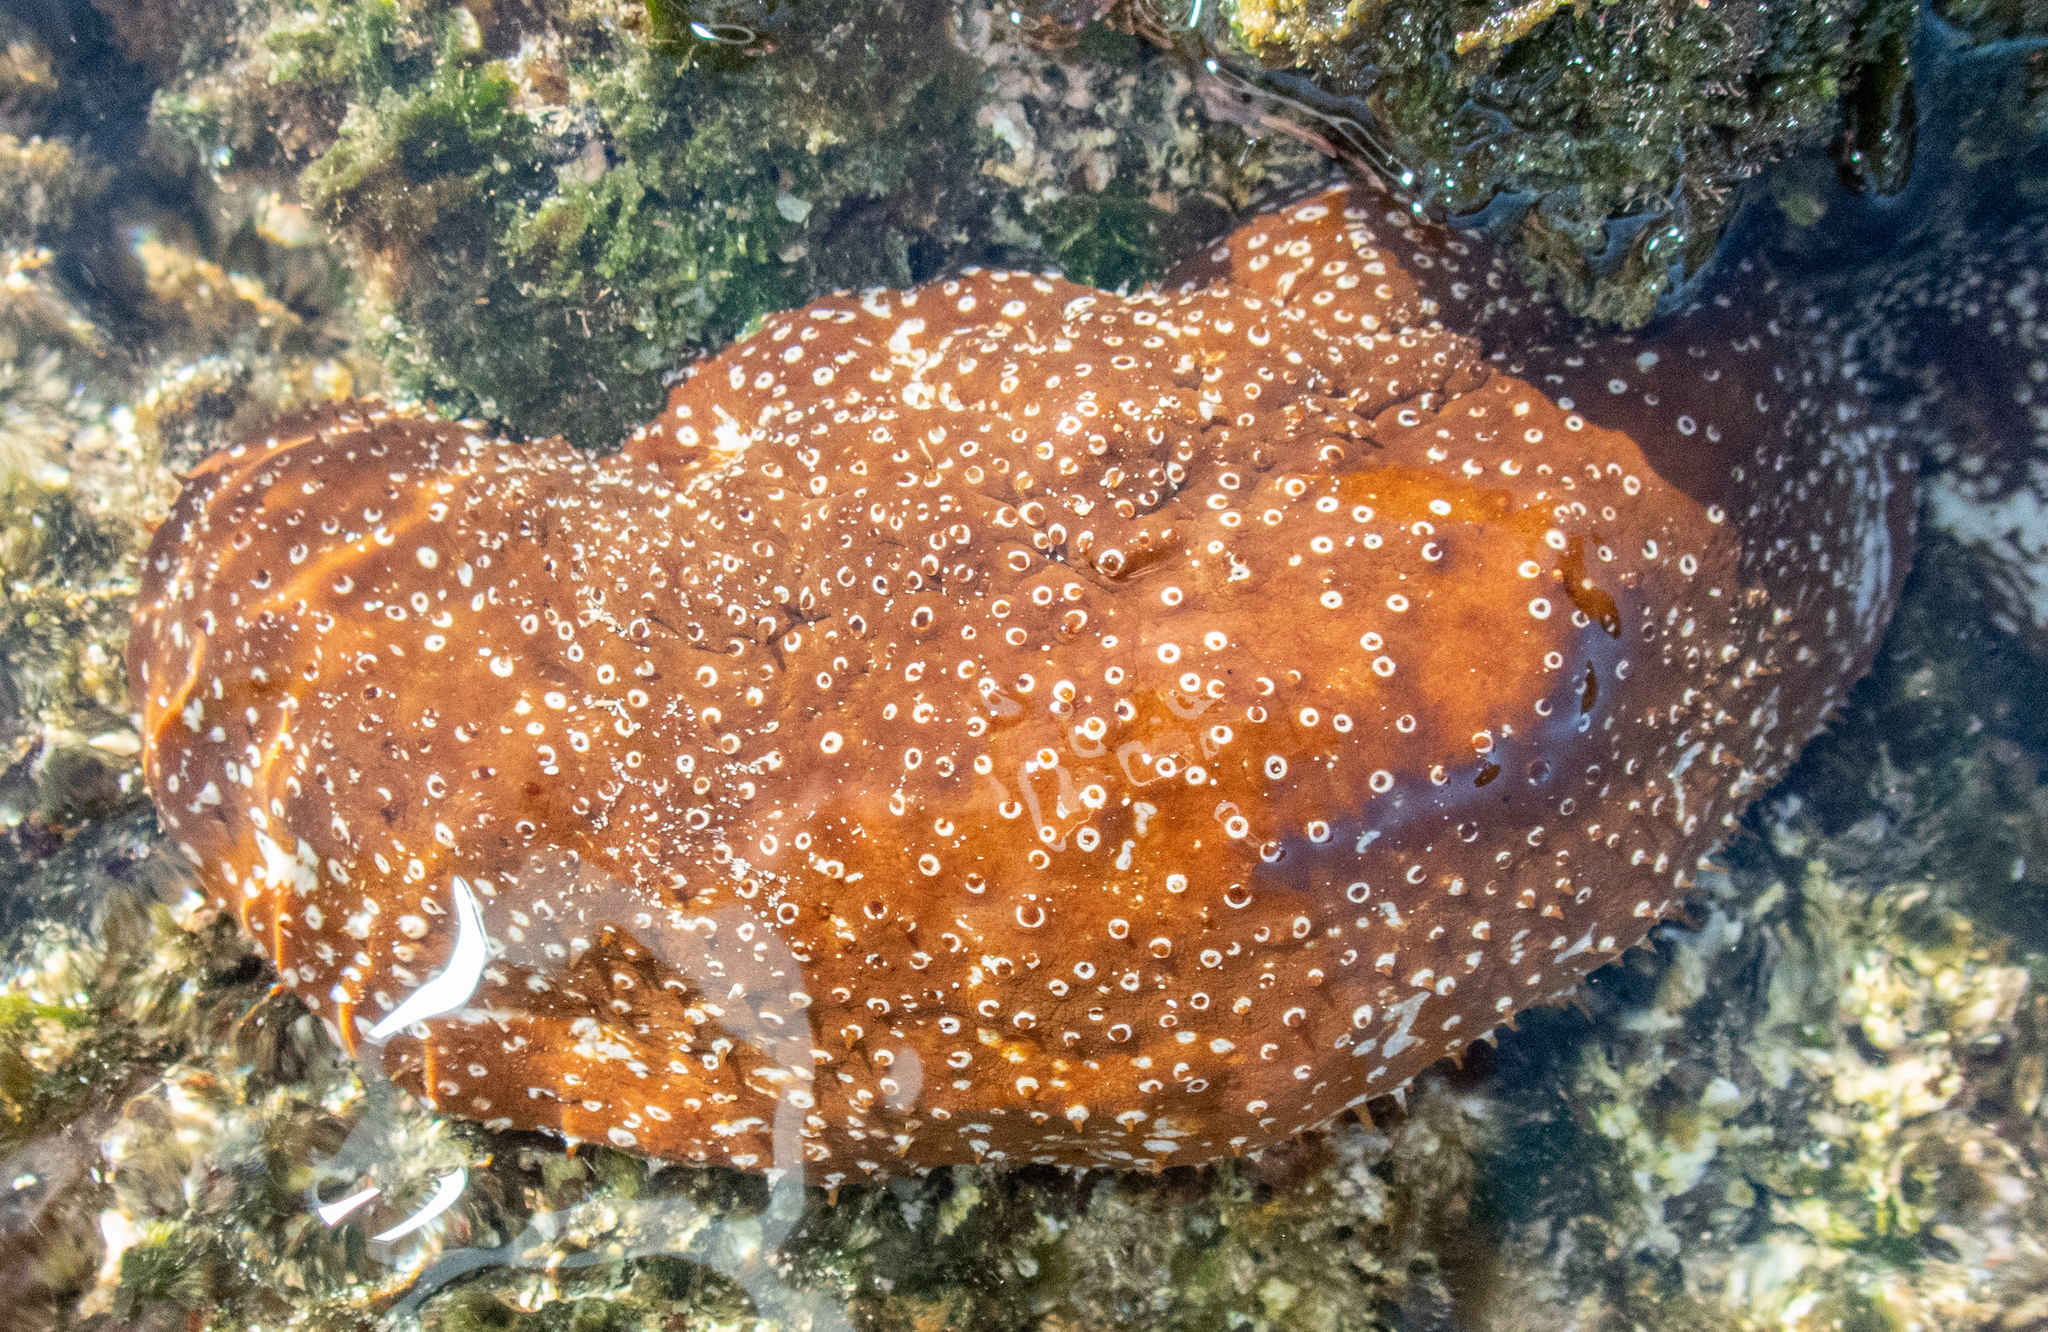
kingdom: Animalia
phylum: Echinodermata
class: Holothuroidea
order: Holothuriida
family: Holothuriidae
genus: Actinopyga
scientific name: Actinopyga varians
